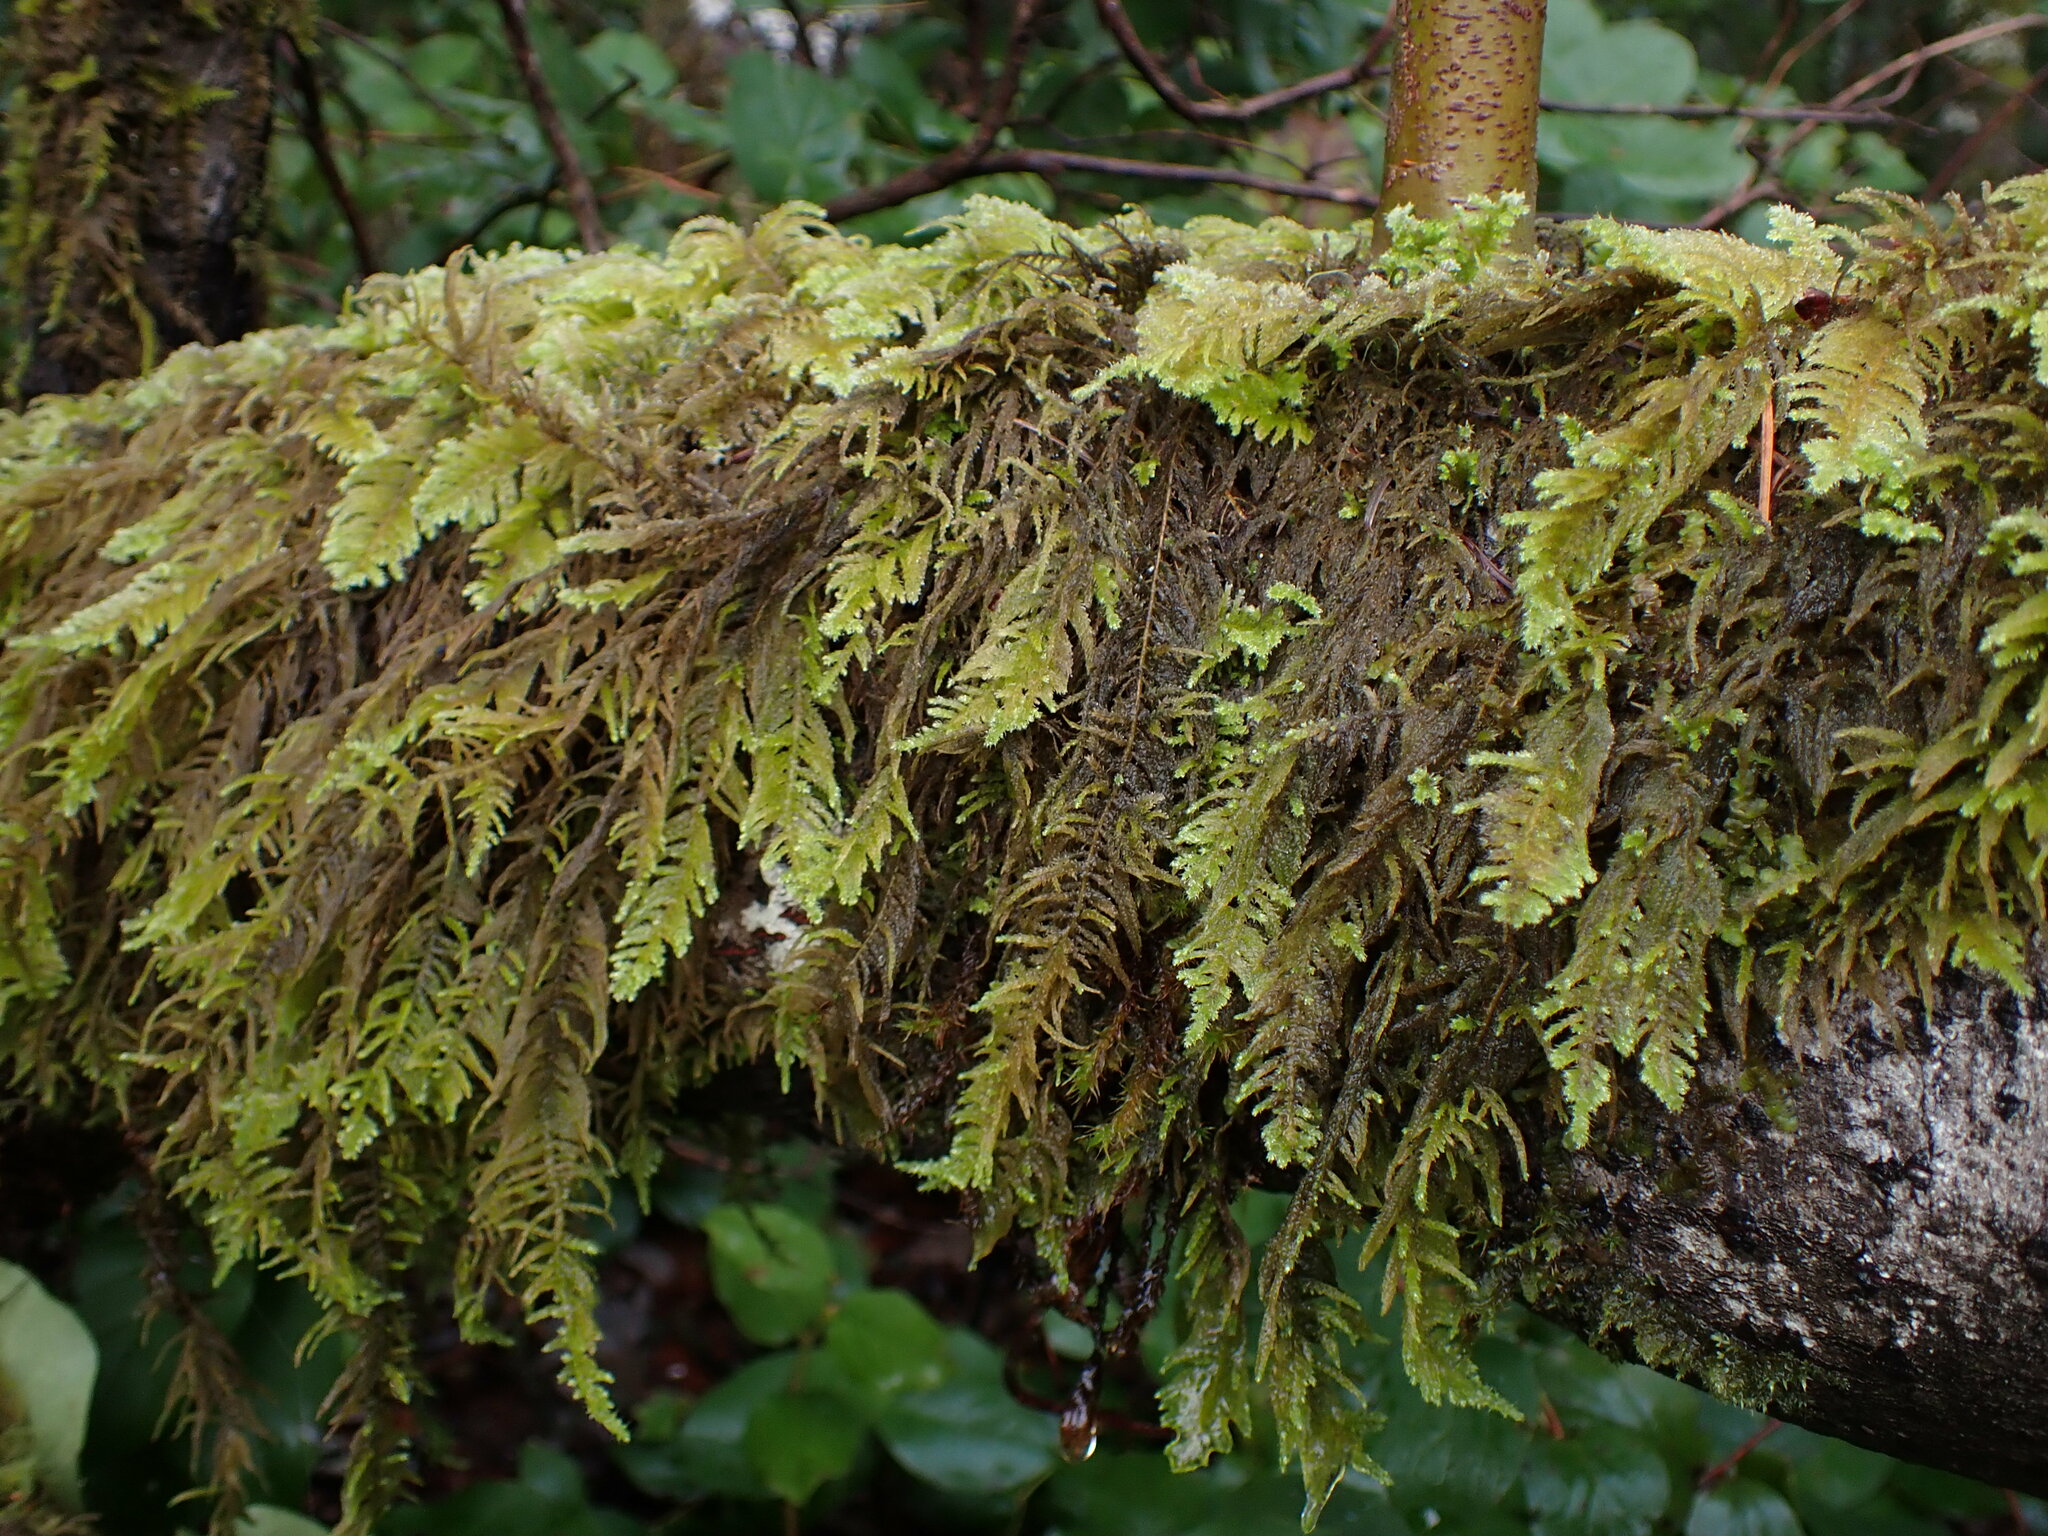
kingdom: Plantae
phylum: Bryophyta
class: Bryopsida
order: Hypnales
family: Brachytheciaceae
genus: Kindbergia
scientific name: Kindbergia oregana
